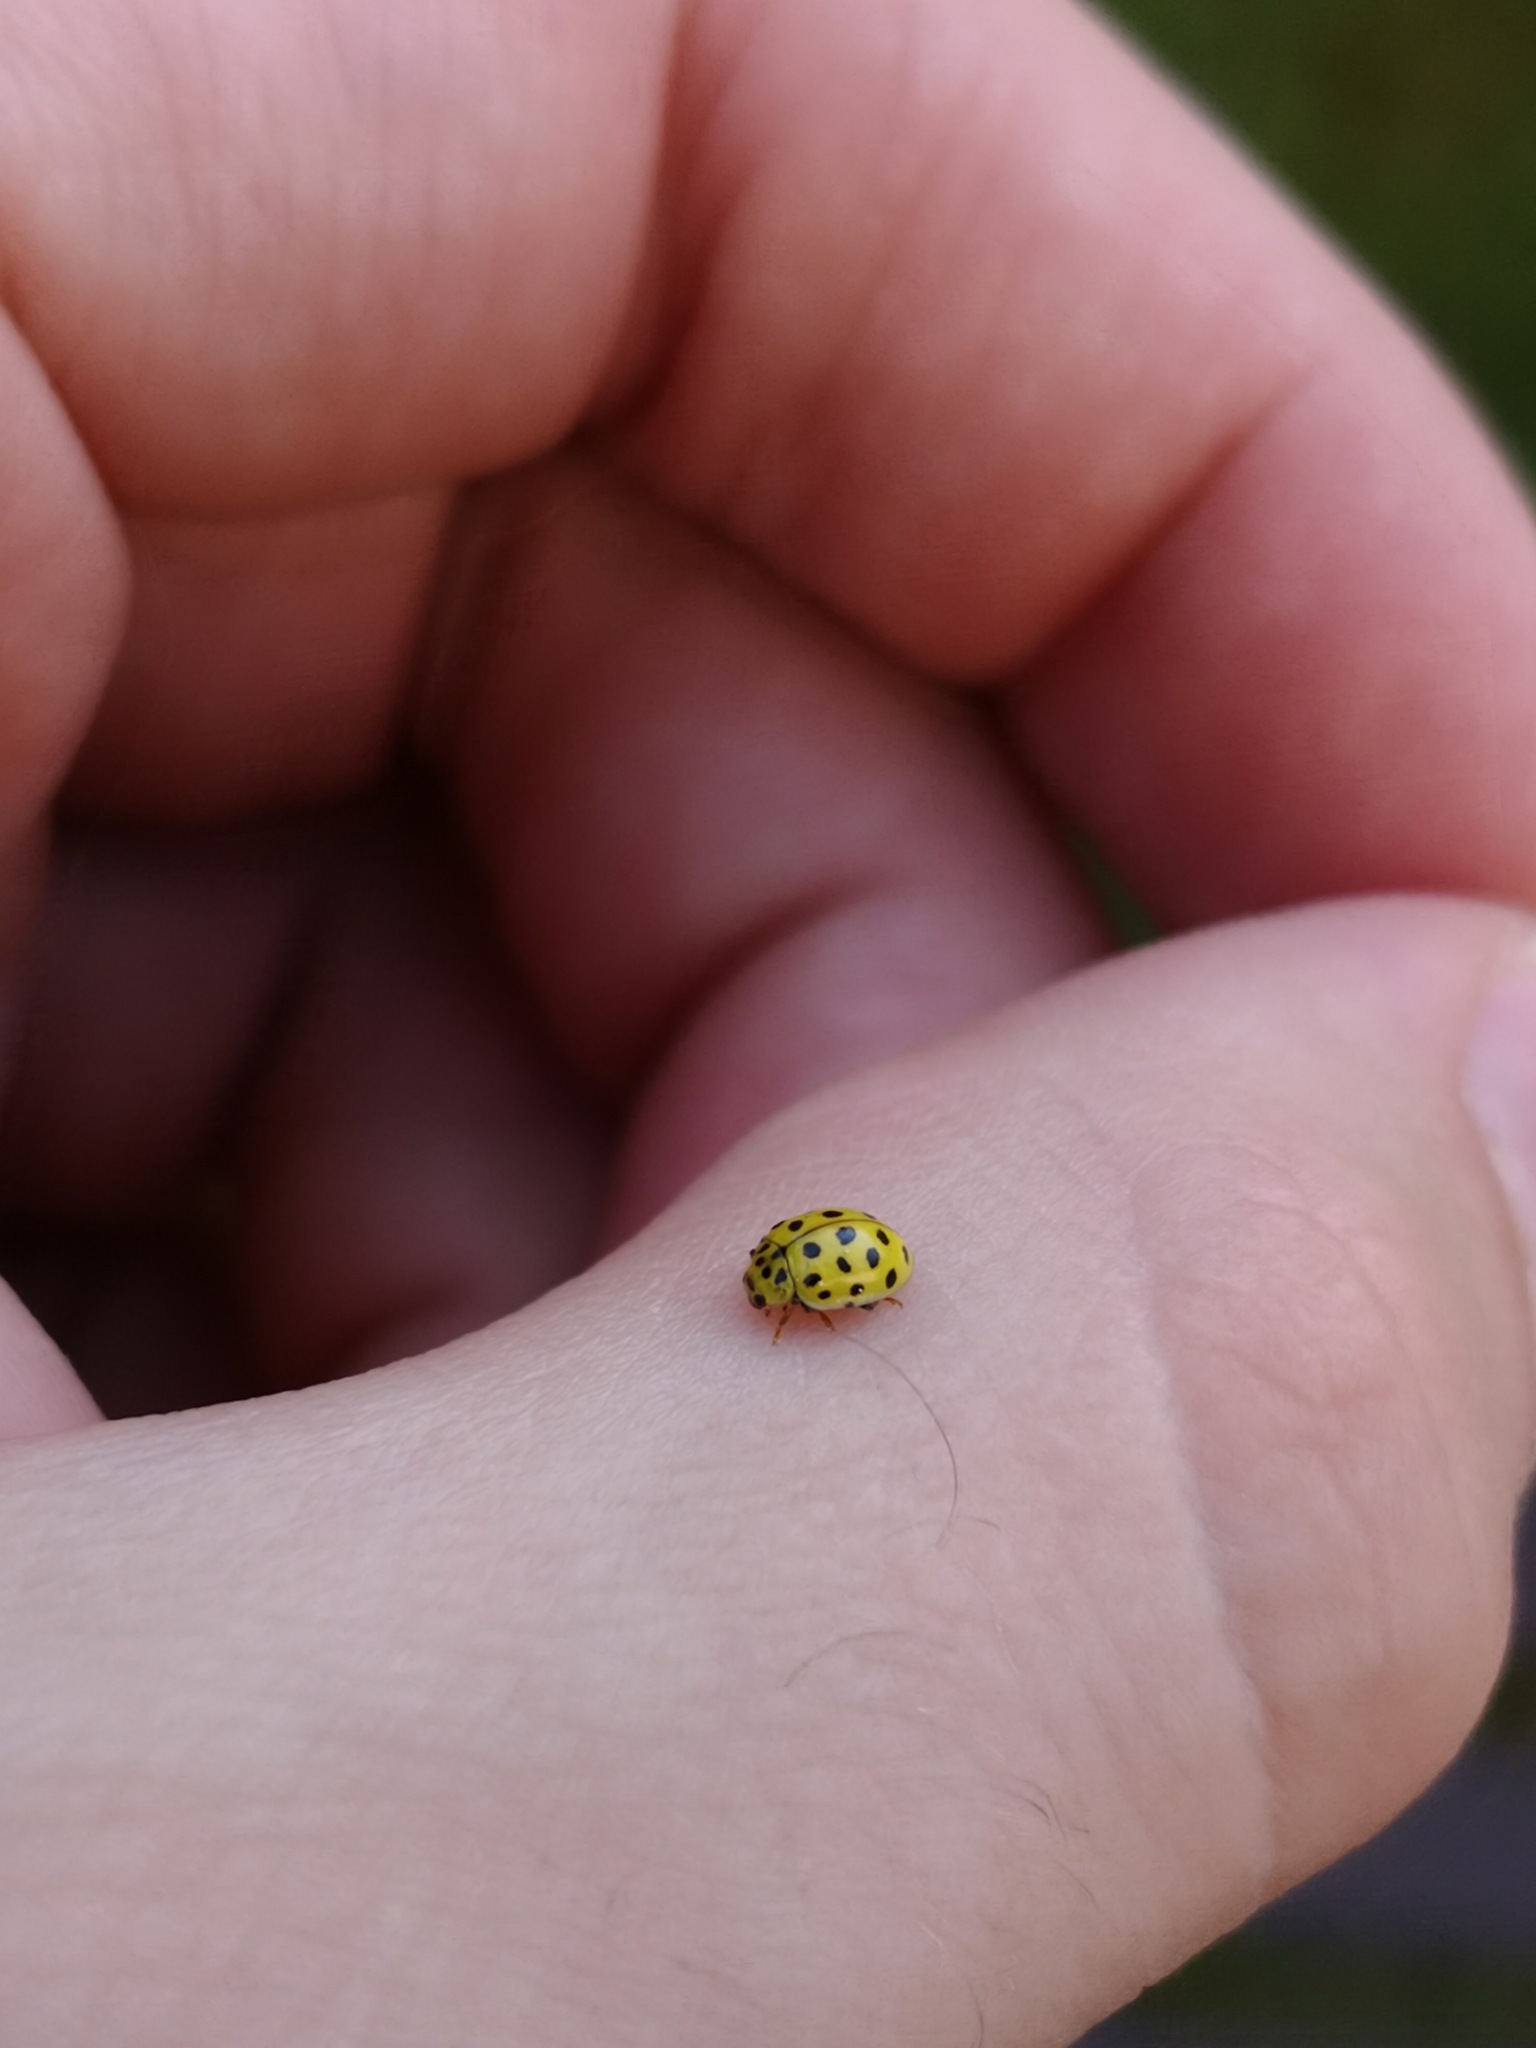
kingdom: Animalia
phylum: Arthropoda
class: Insecta
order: Coleoptera
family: Coccinellidae
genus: Psyllobora
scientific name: Psyllobora vigintiduopunctata
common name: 22-spot ladybird
